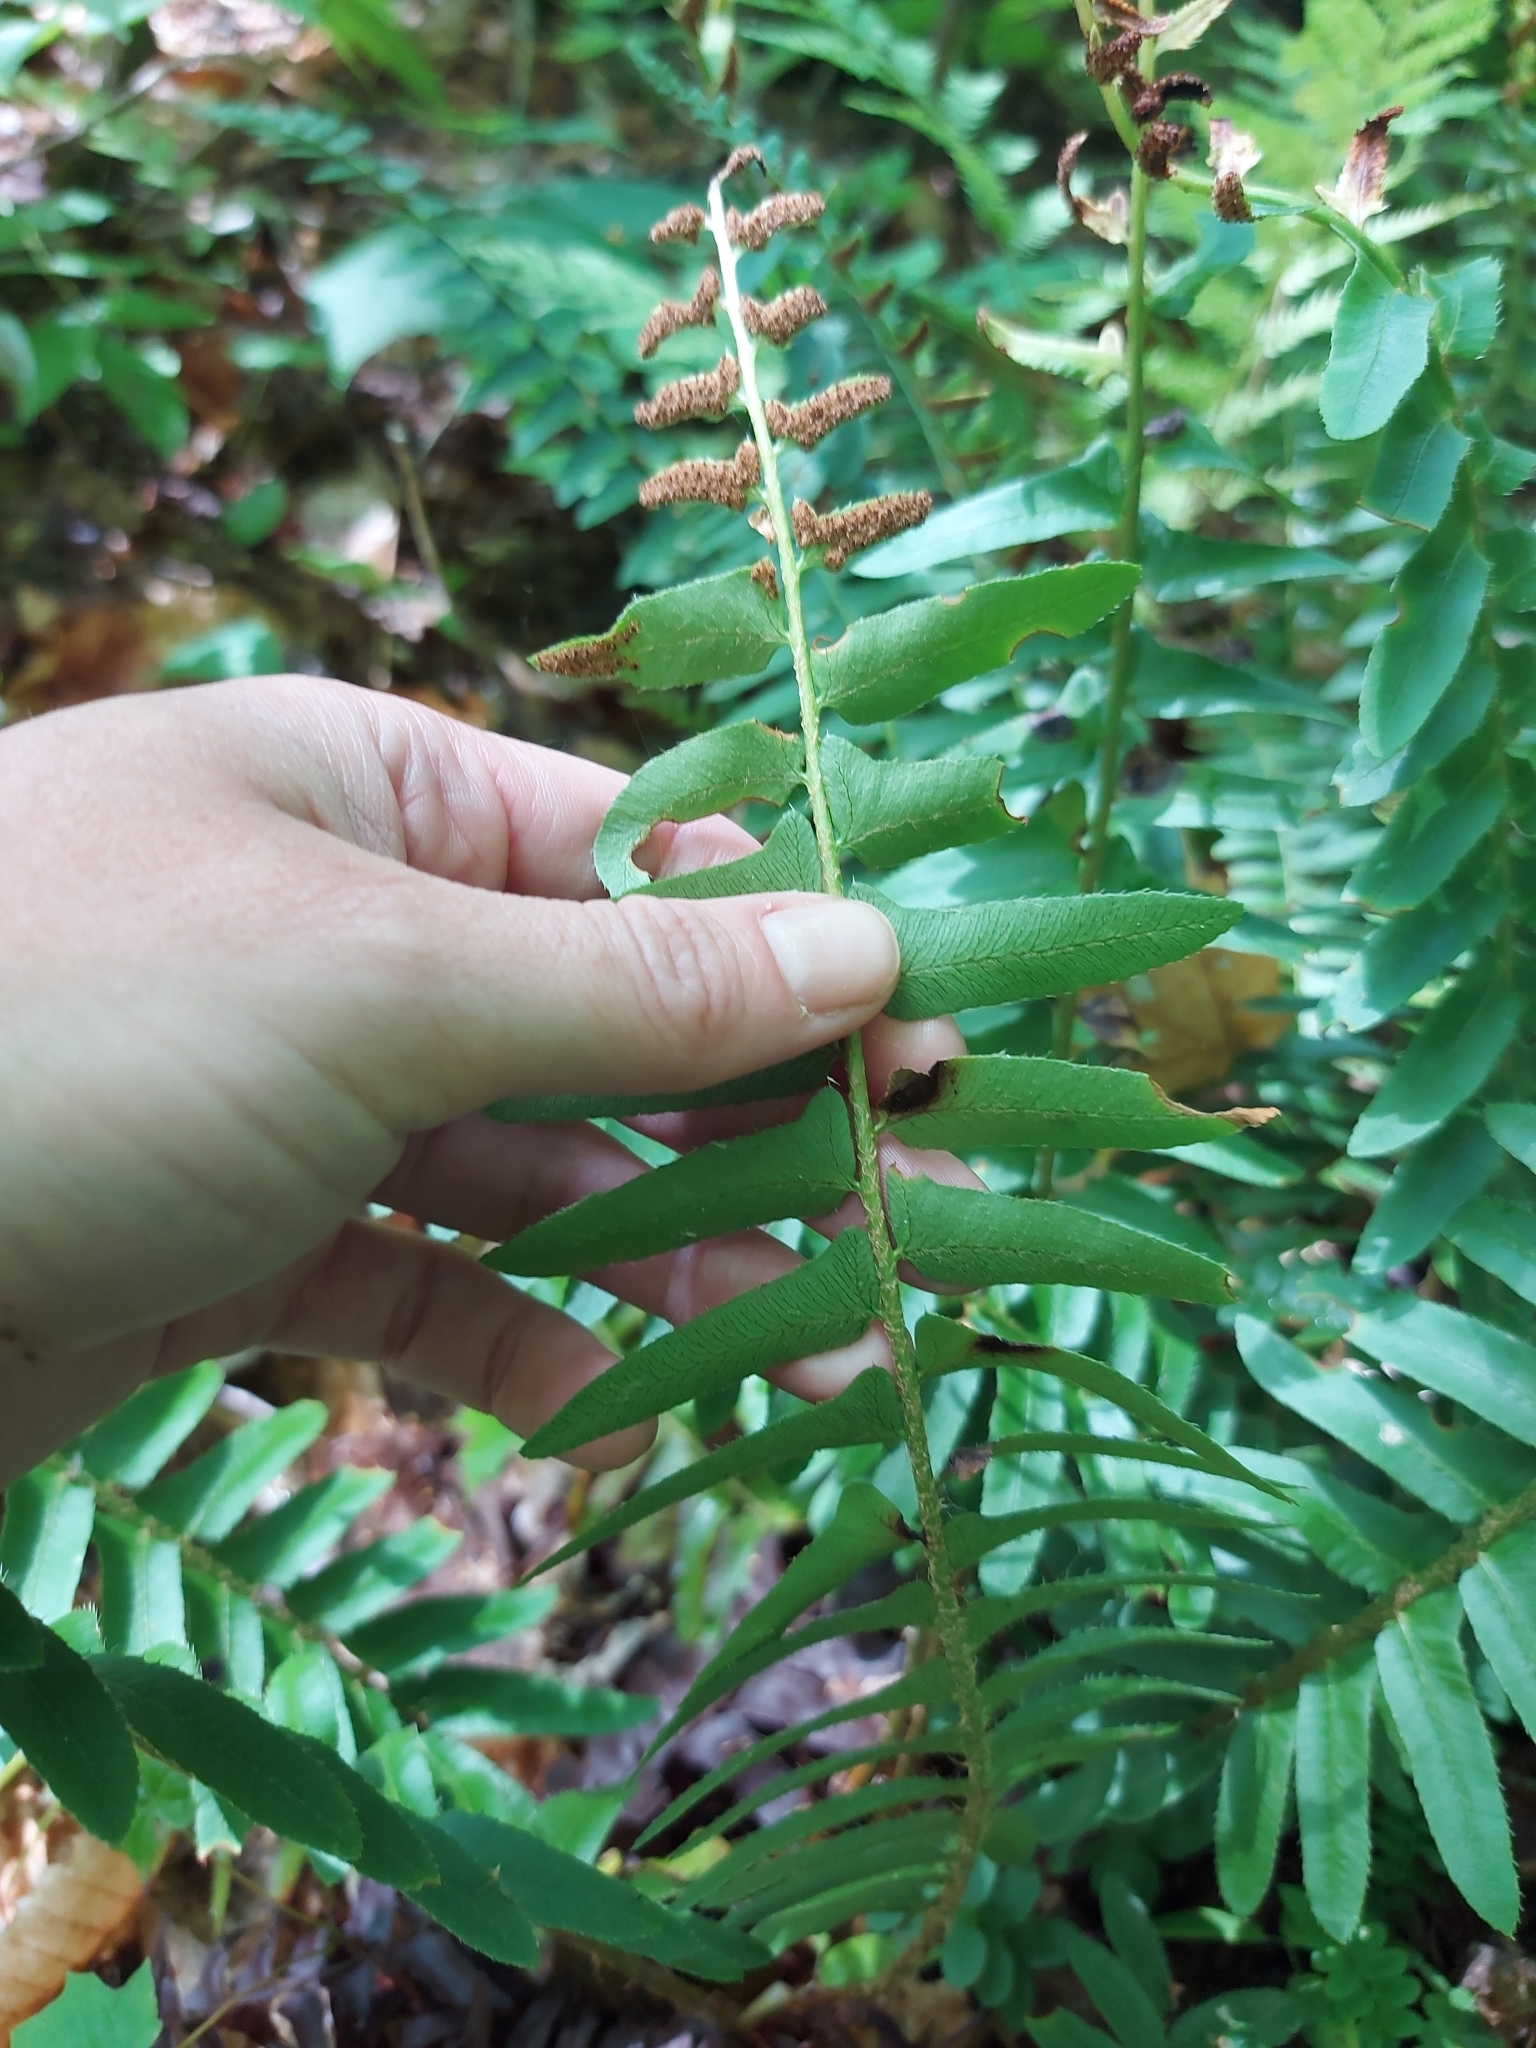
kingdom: Plantae
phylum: Tracheophyta
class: Polypodiopsida
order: Polypodiales
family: Dryopteridaceae
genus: Polystichum
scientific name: Polystichum acrostichoides
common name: Christmas fern
